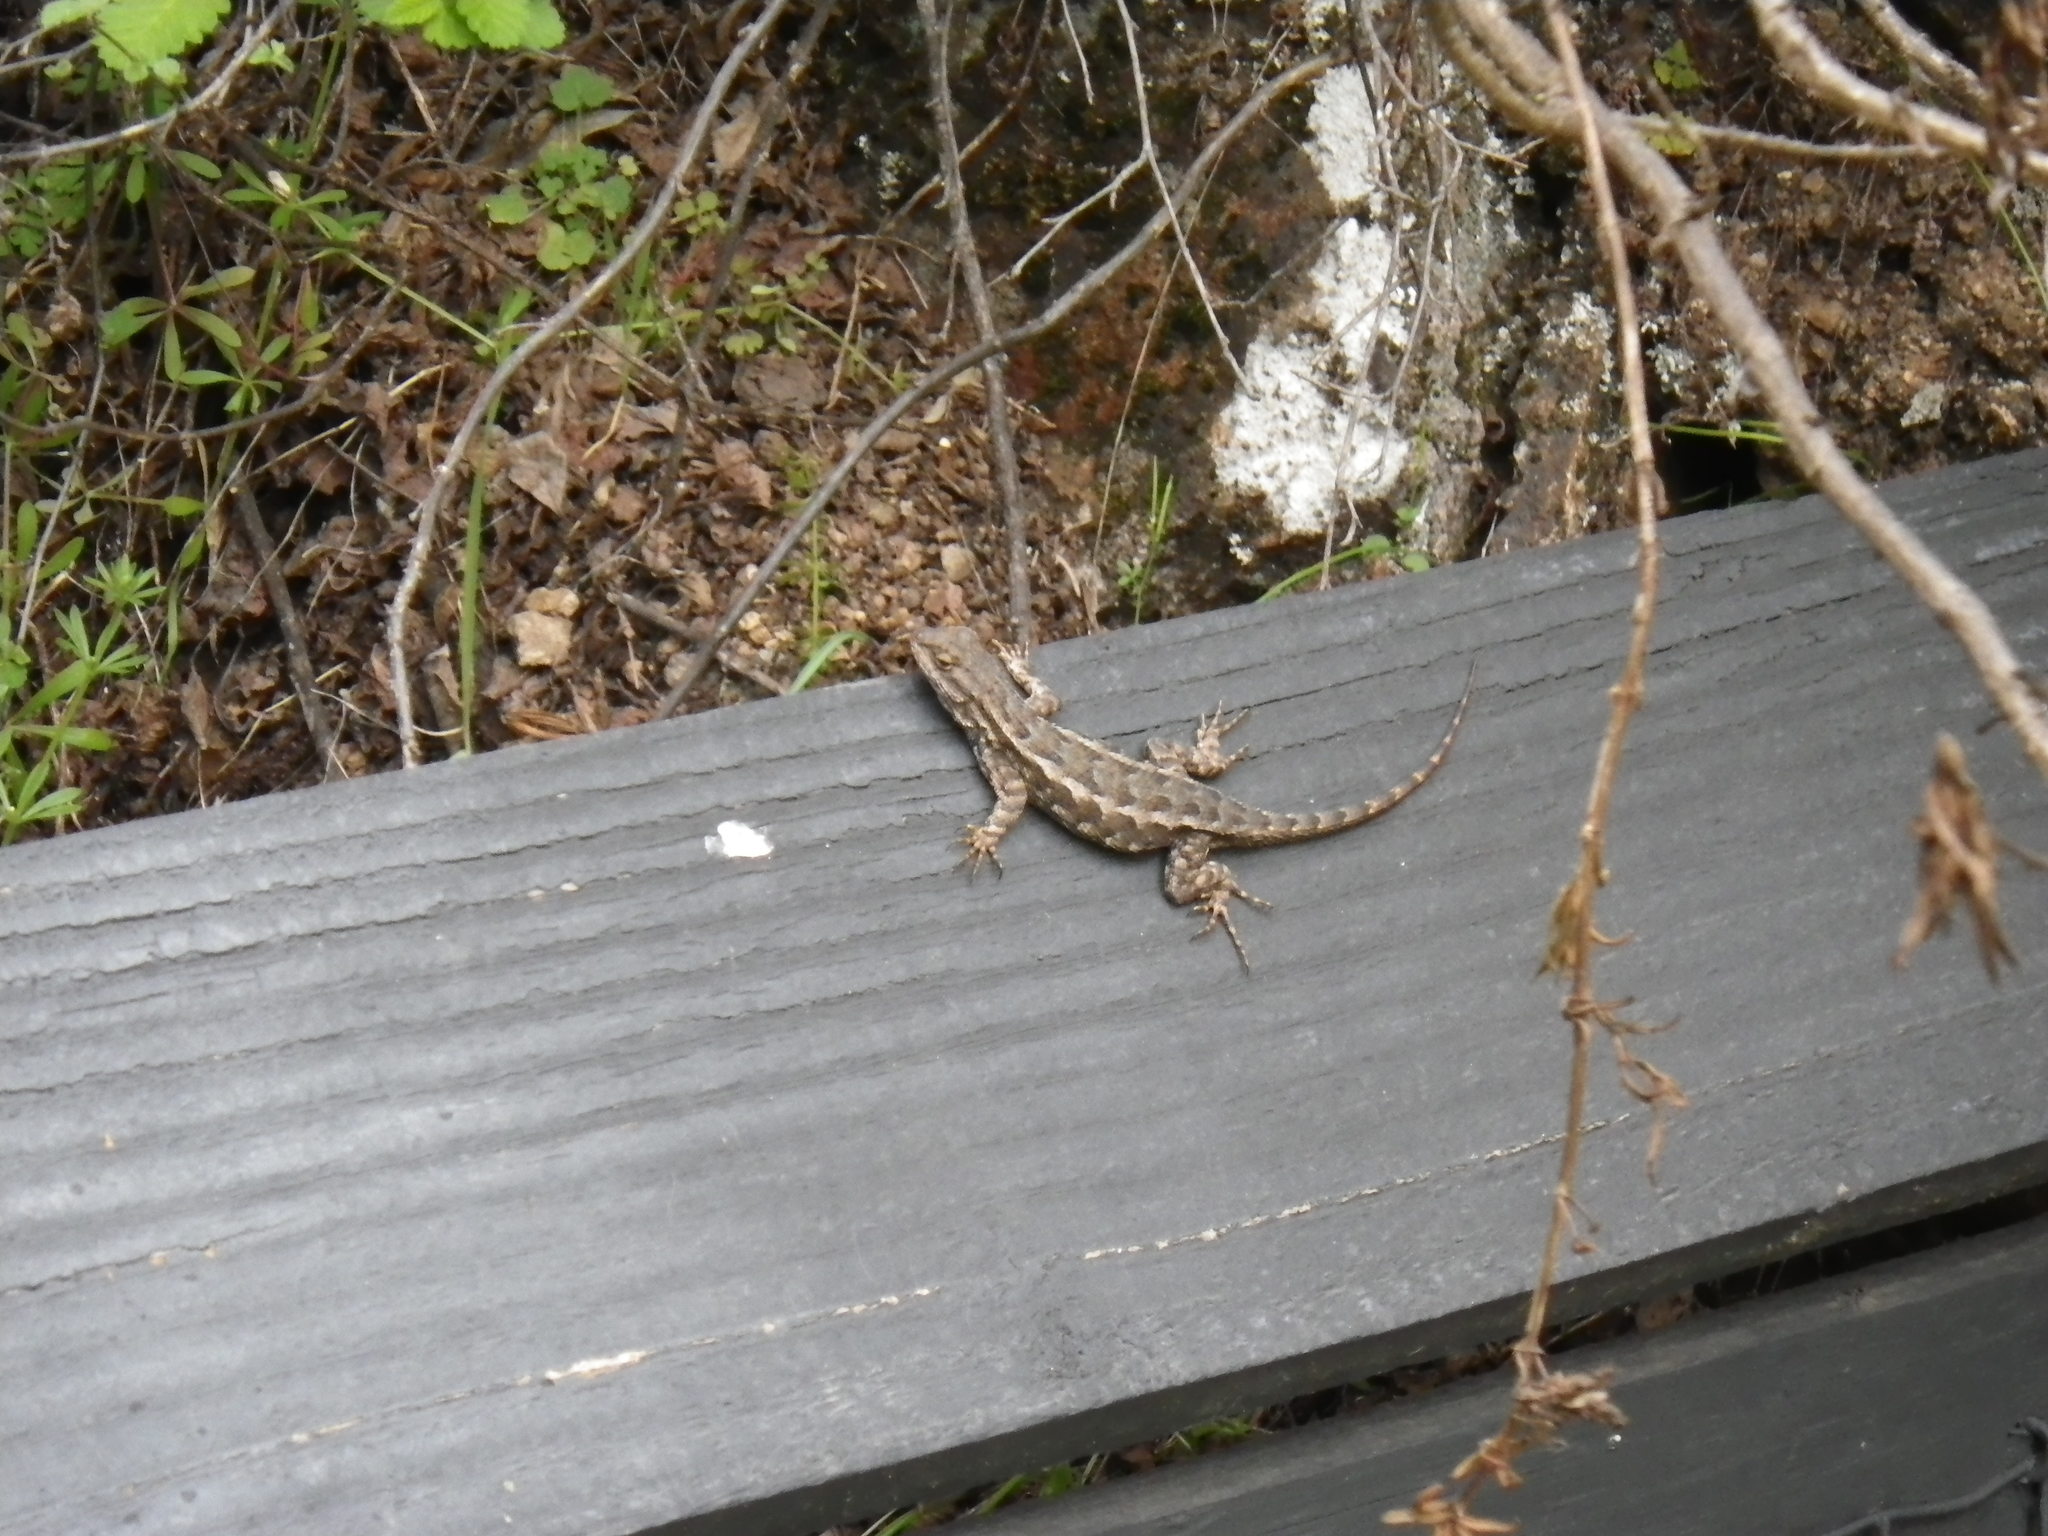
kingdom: Animalia
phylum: Chordata
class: Squamata
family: Phrynosomatidae
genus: Sceloporus
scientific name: Sceloporus occidentalis
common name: Western fence lizard
